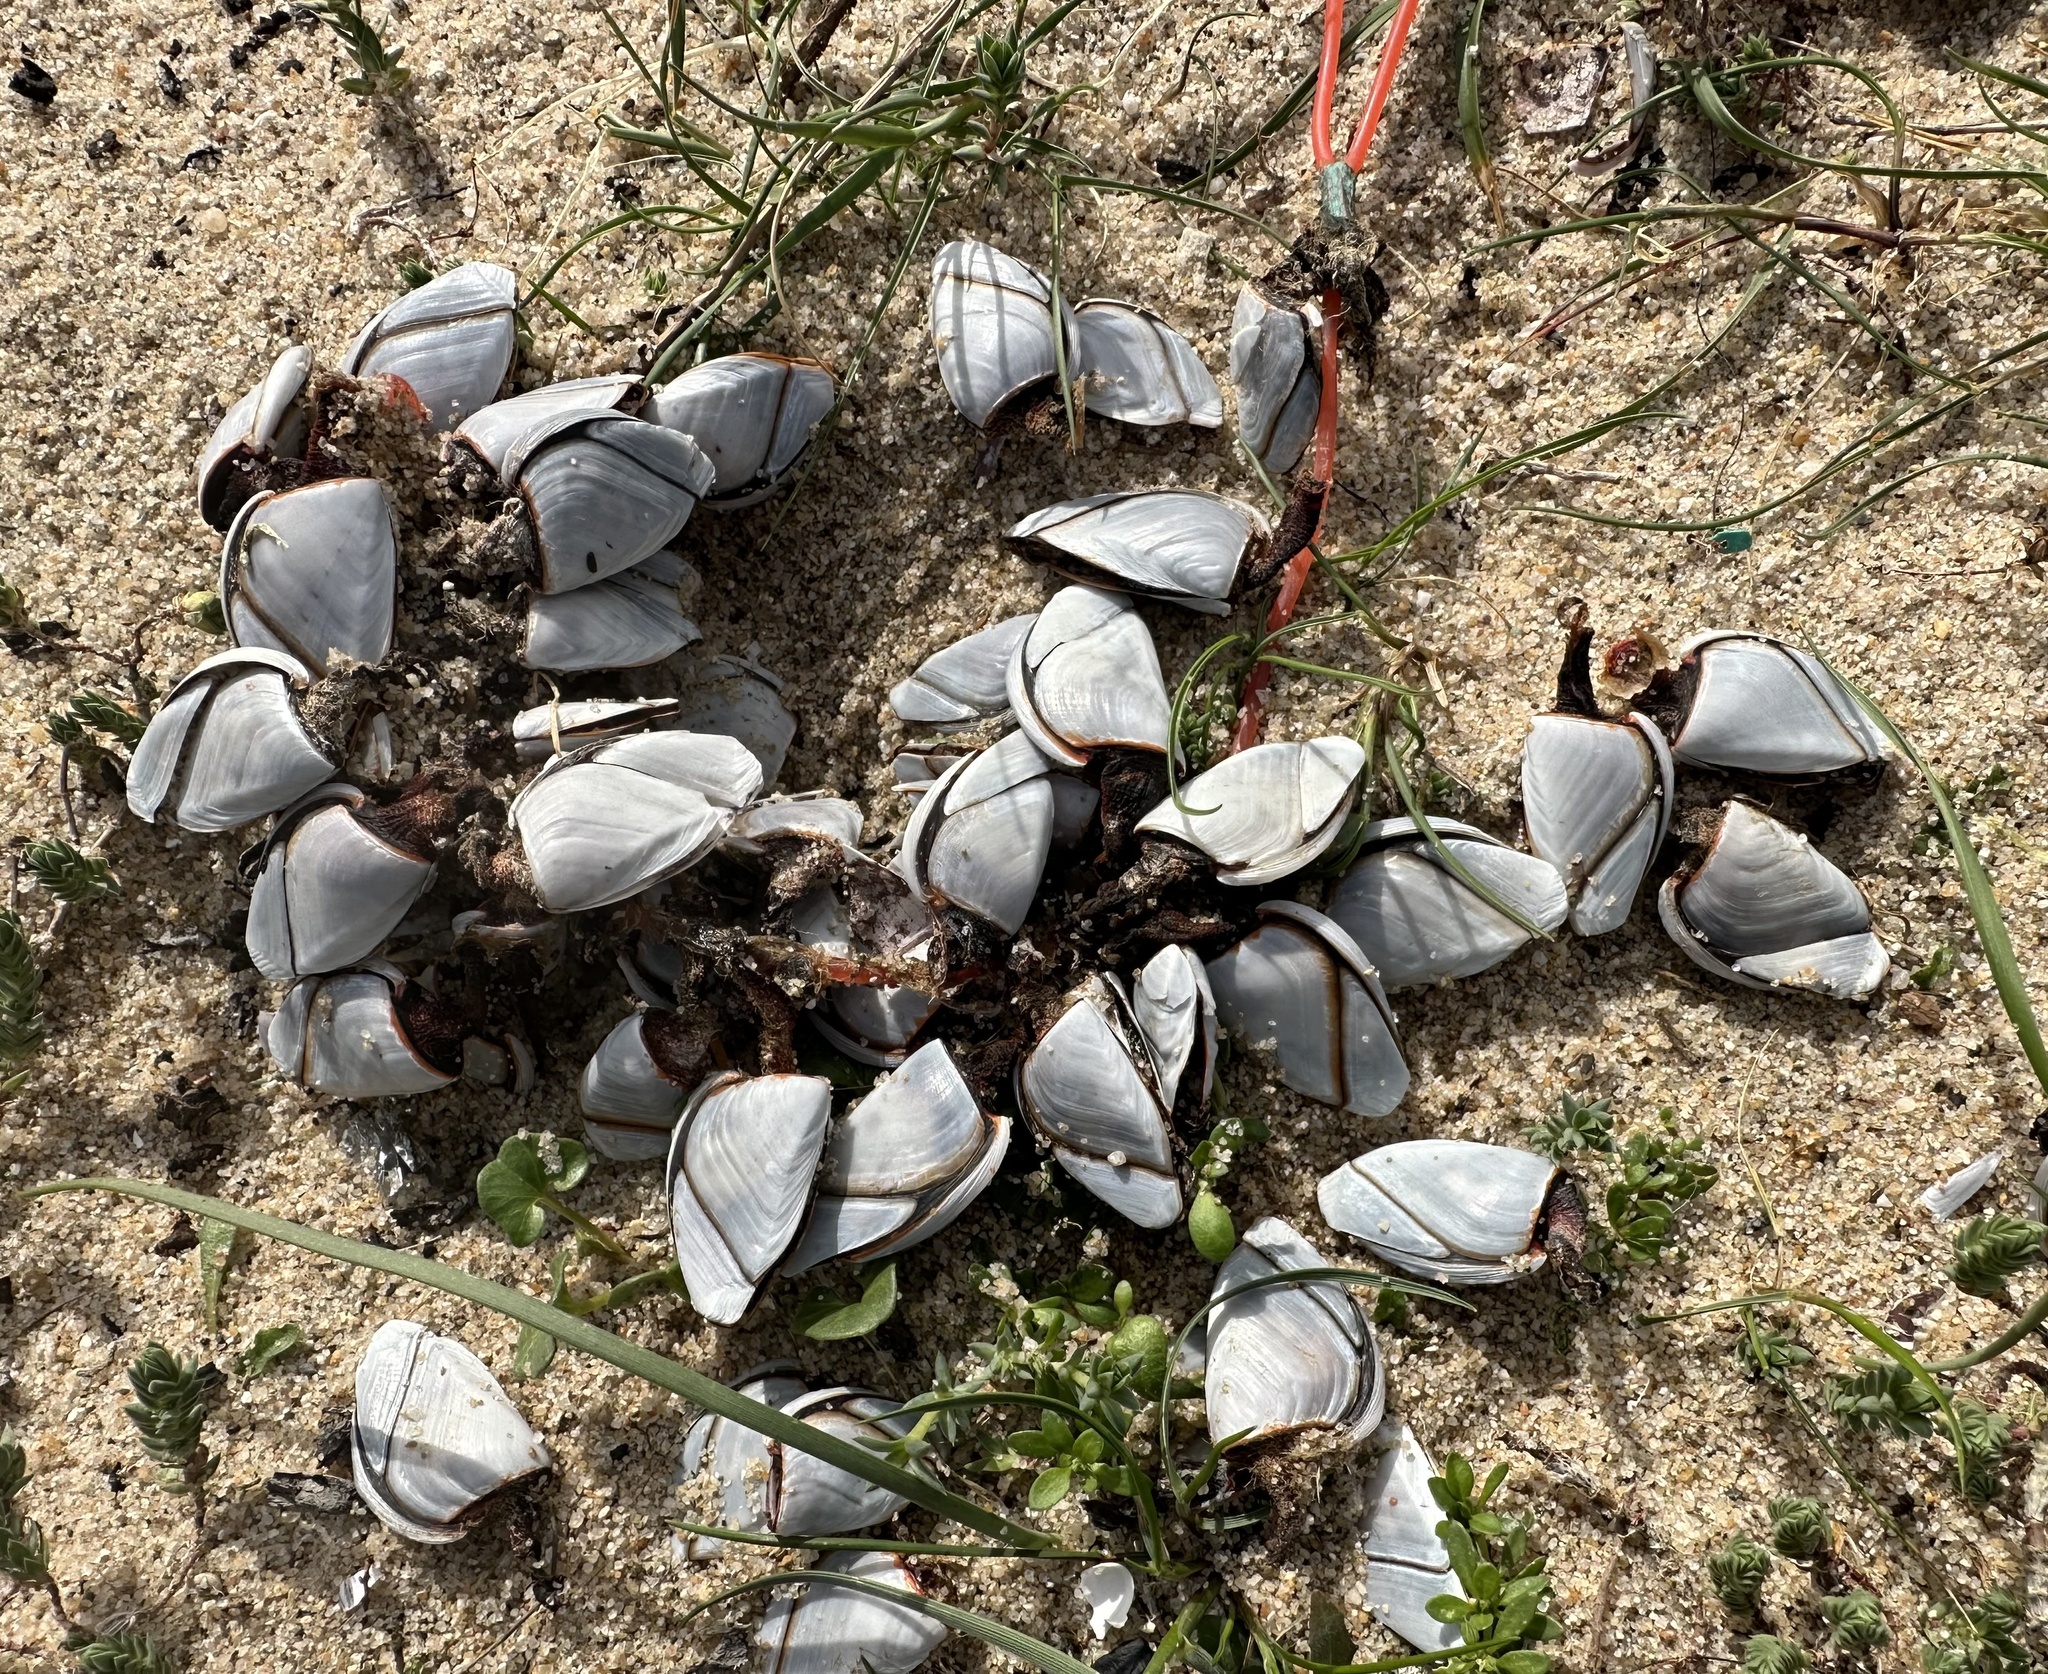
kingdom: Animalia
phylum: Arthropoda
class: Maxillopoda
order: Pedunculata
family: Lepadidae
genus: Lepas
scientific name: Lepas anatifera
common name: Common goose barnacle
